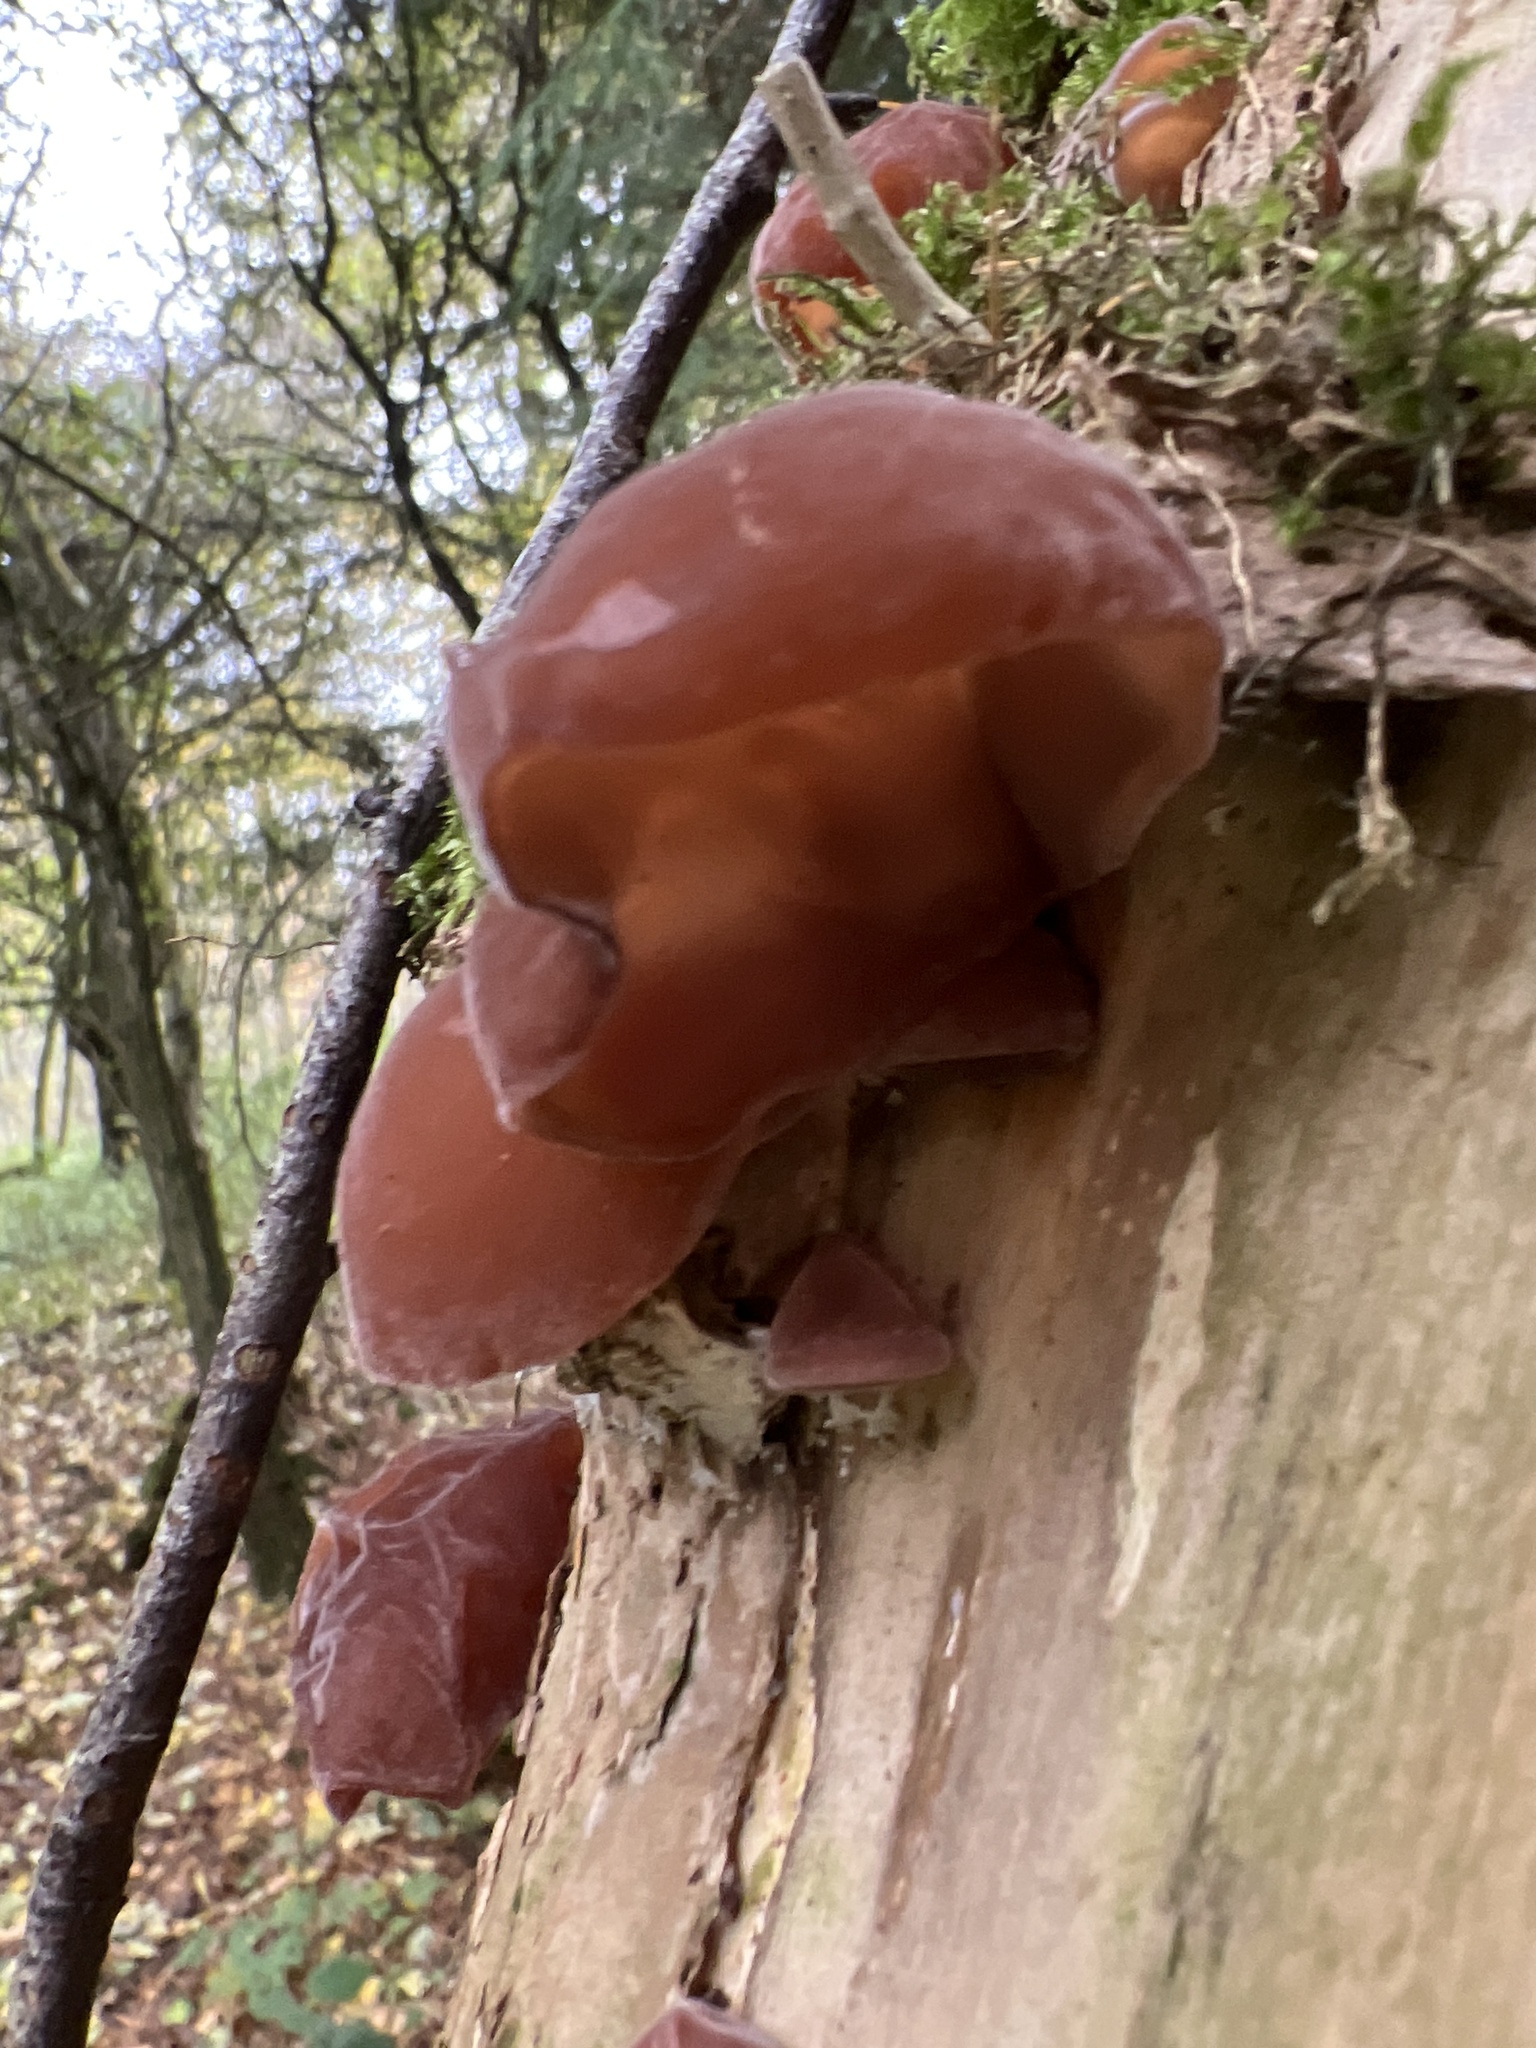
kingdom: Fungi
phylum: Basidiomycota
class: Agaricomycetes
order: Auriculariales
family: Auriculariaceae
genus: Auricularia
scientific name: Auricularia auricula-judae
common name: Jelly ear
